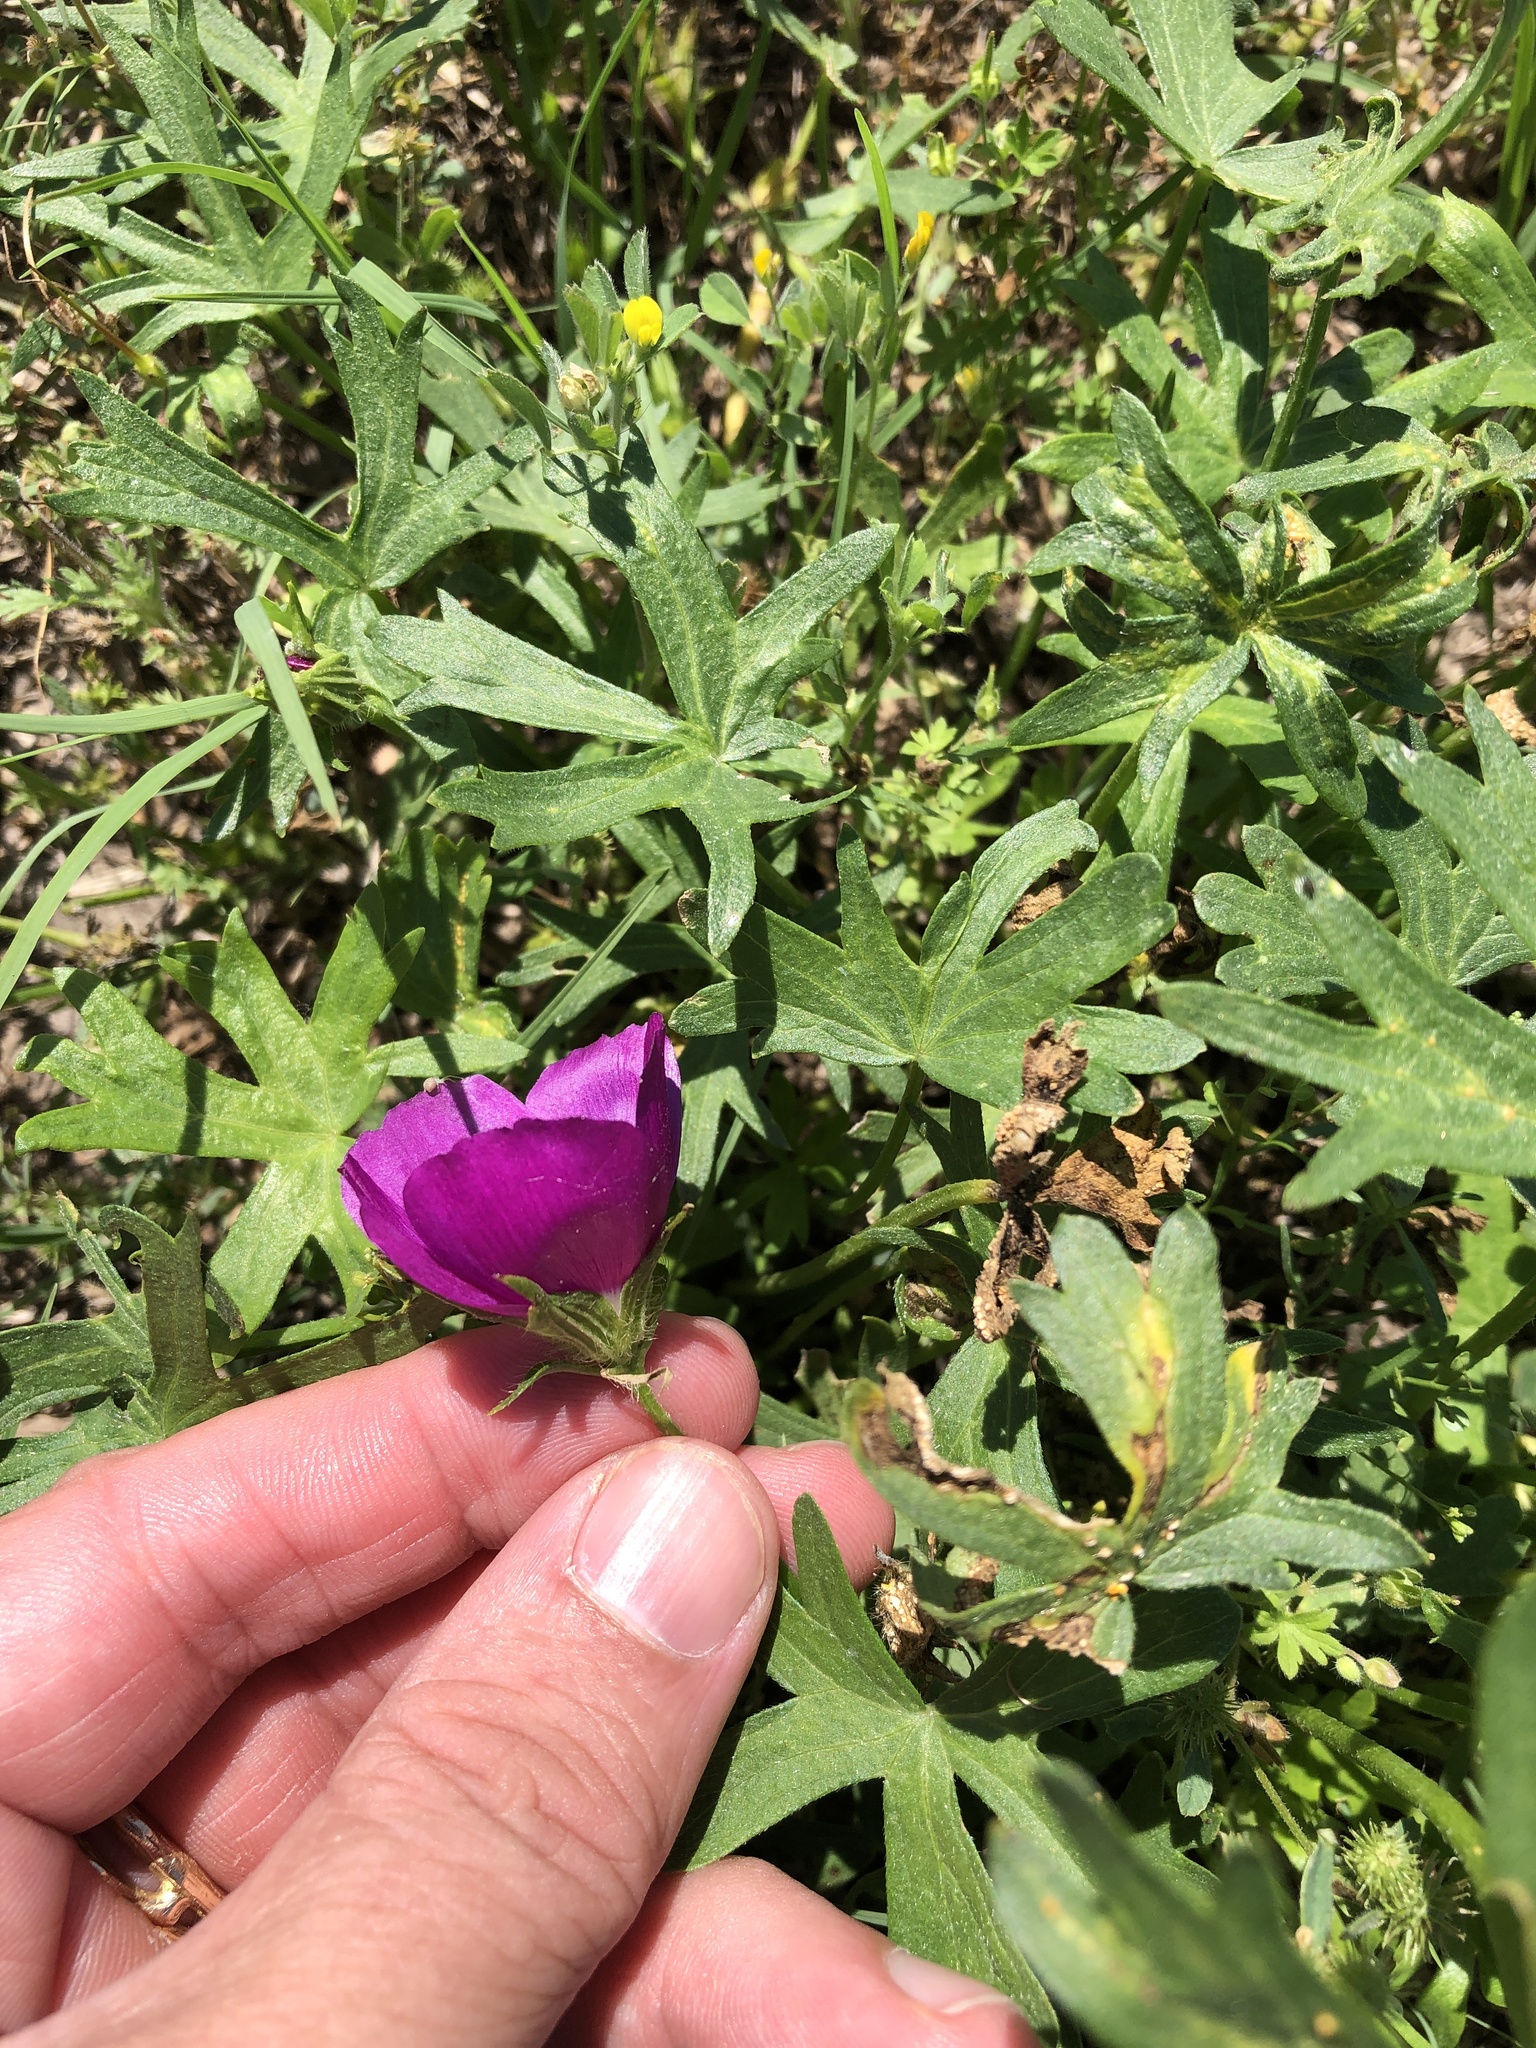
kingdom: Plantae
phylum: Tracheophyta
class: Magnoliopsida
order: Malvales
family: Malvaceae
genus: Callirhoe
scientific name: Callirhoe involucrata
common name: Purple poppy-mallow
